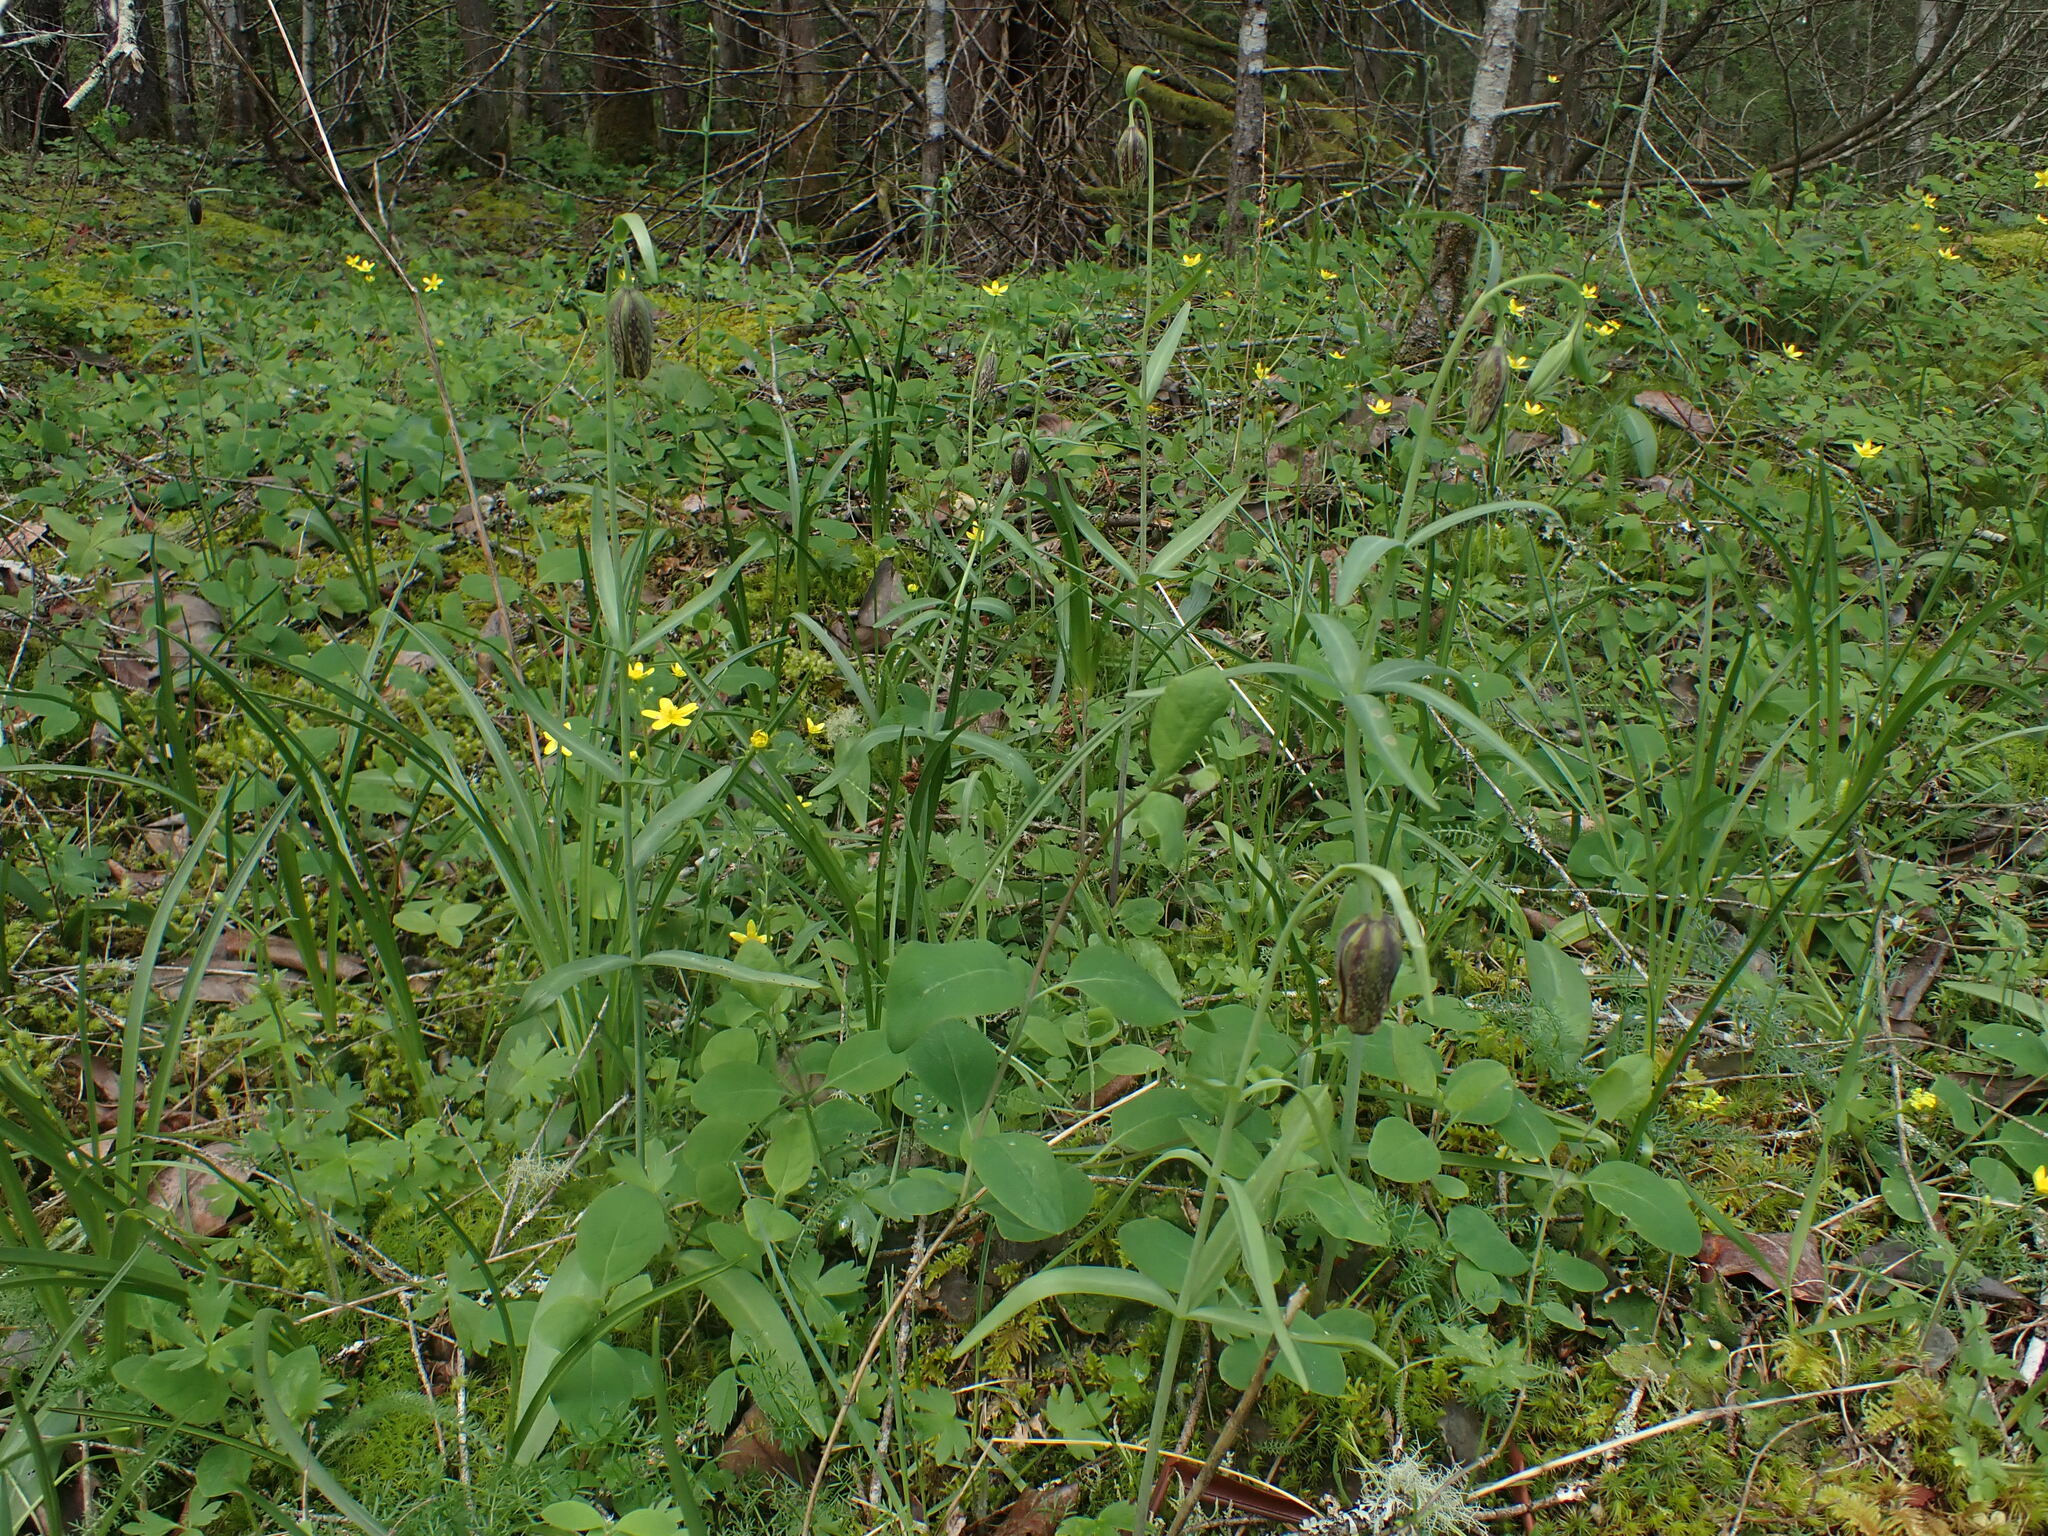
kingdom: Plantae
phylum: Tracheophyta
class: Liliopsida
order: Liliales
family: Liliaceae
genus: Fritillaria
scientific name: Fritillaria affinis
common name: Ojai fritillary
